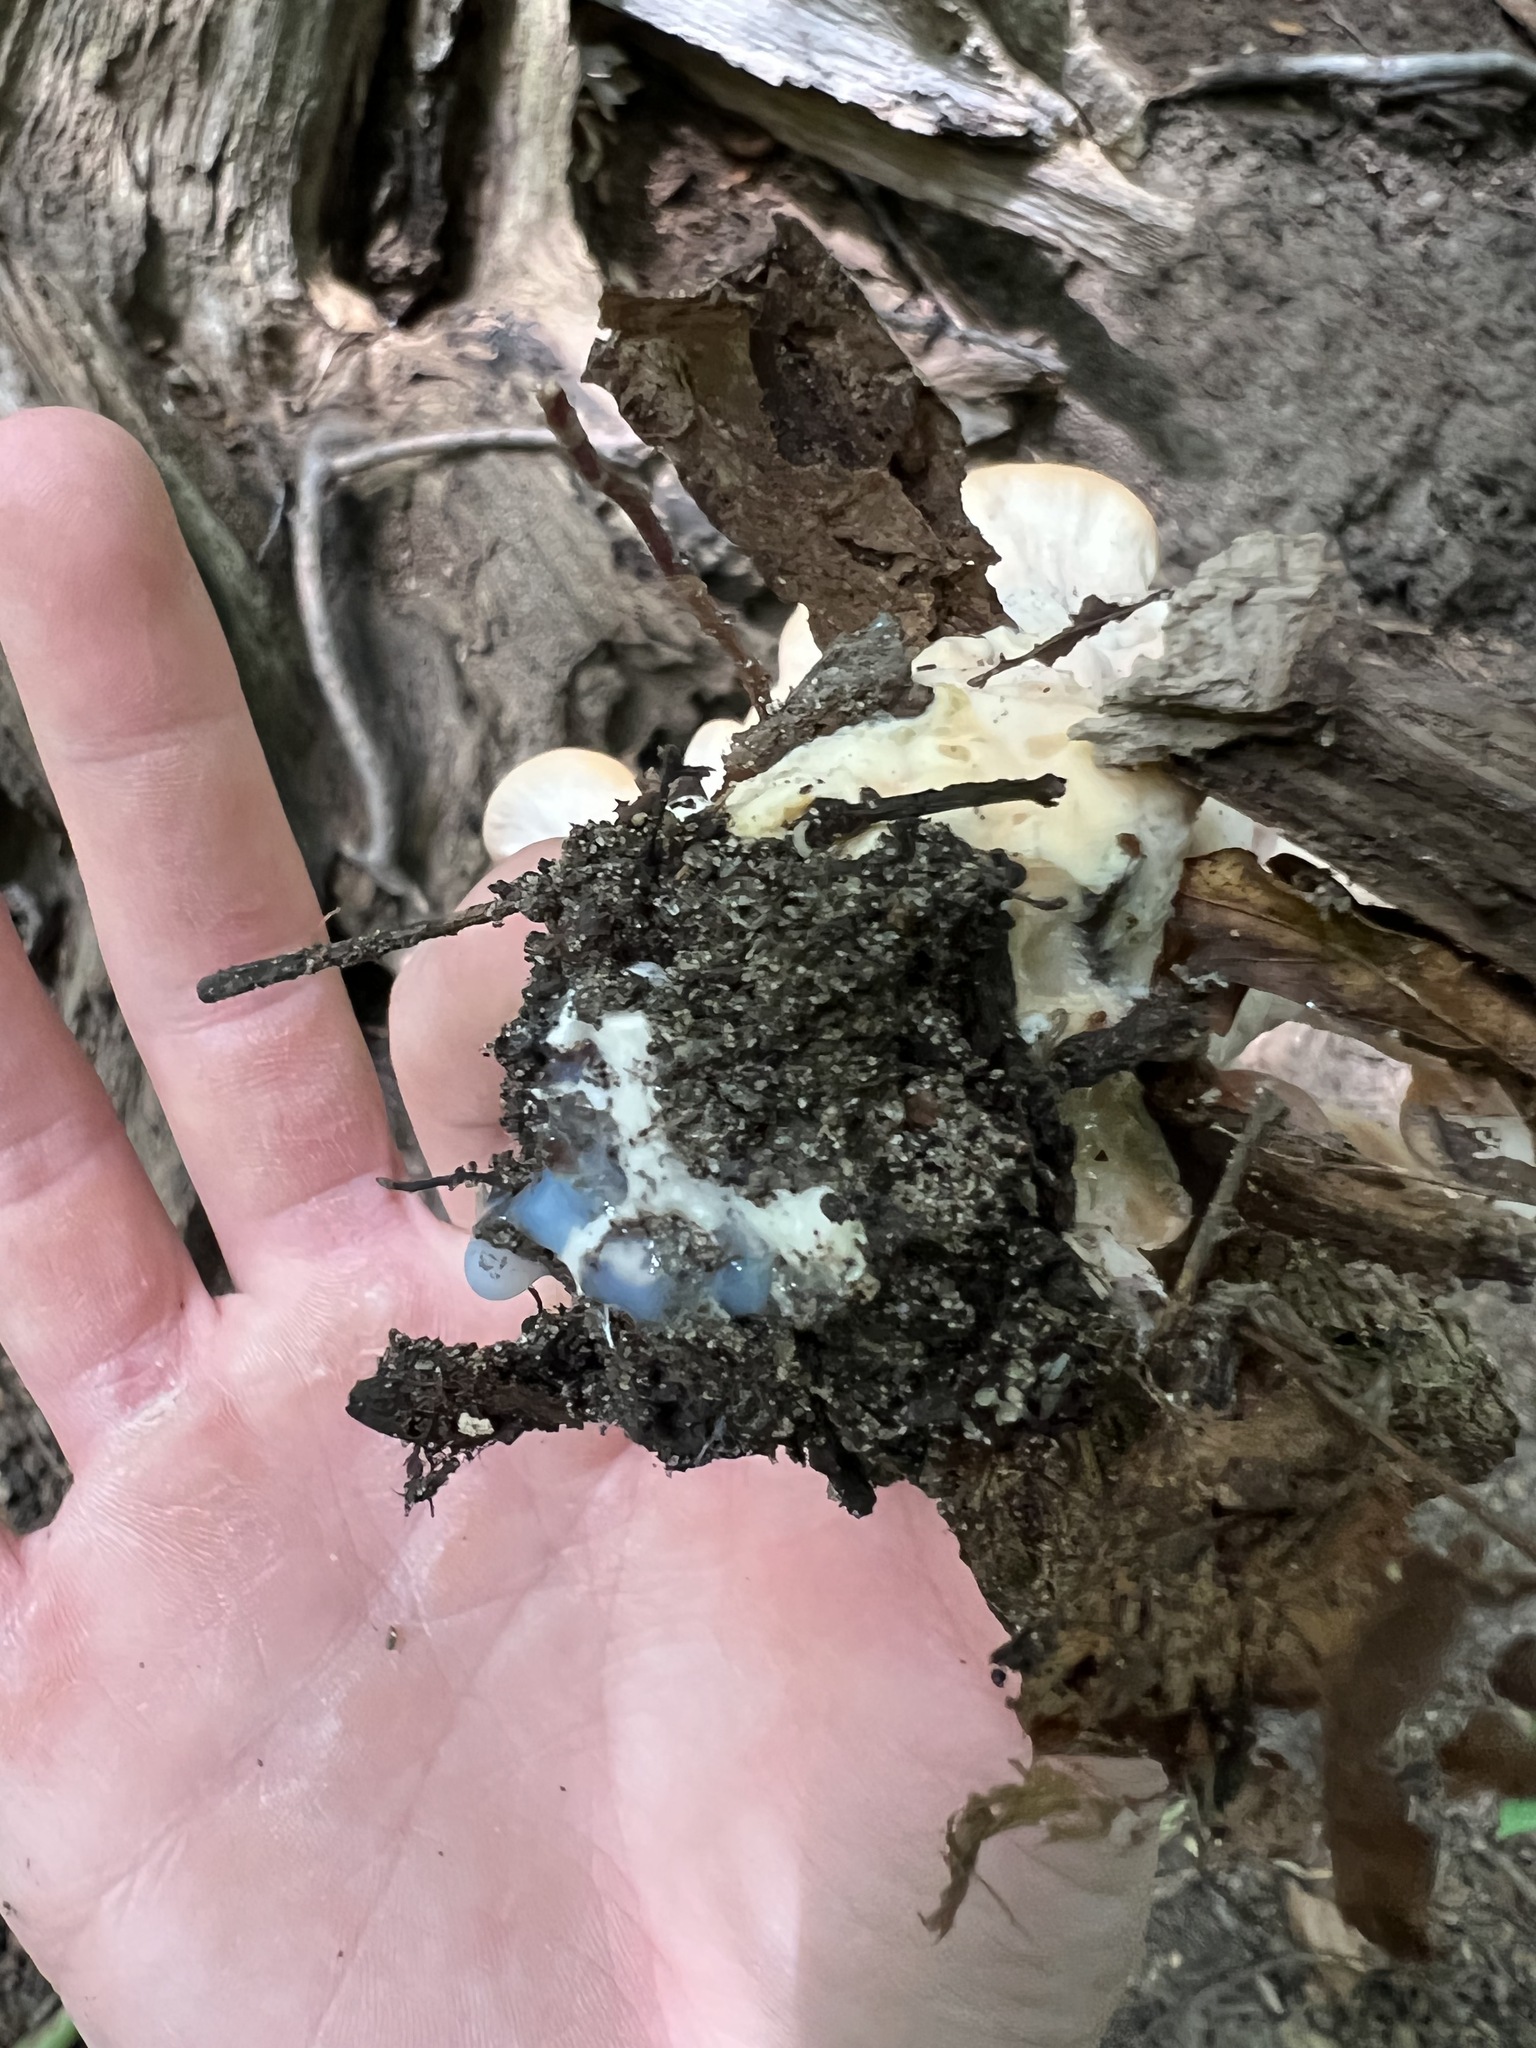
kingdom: Fungi
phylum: Basidiomycota
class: Agaricomycetes
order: Polyporales
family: Laetiporaceae
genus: Laetiporus
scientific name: Laetiporus sulphureus
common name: Chicken of the woods
